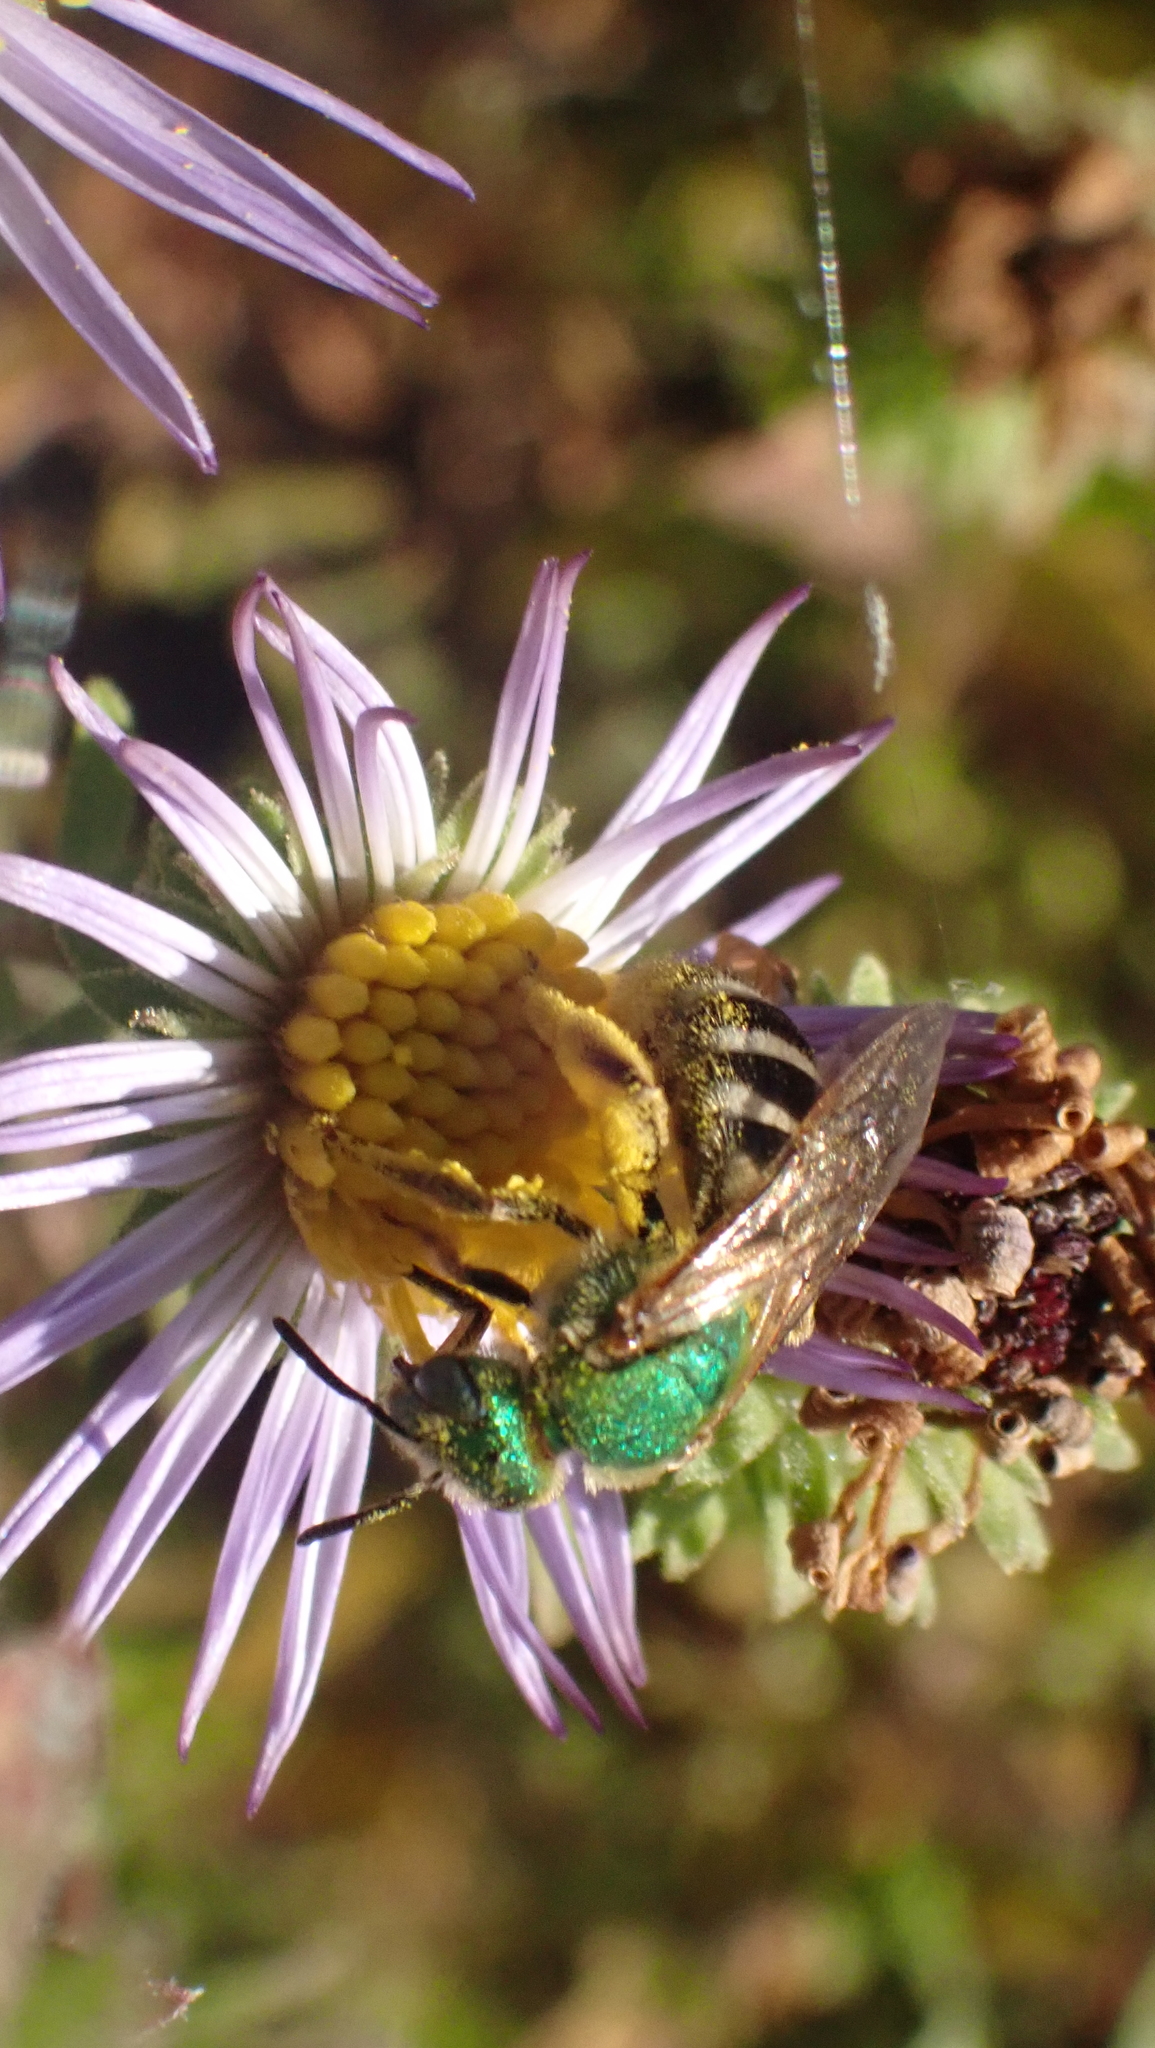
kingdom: Animalia
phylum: Arthropoda
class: Insecta
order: Hymenoptera
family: Halictidae
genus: Agapostemon
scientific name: Agapostemon virescens
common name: Bicolored striped sweat bee
